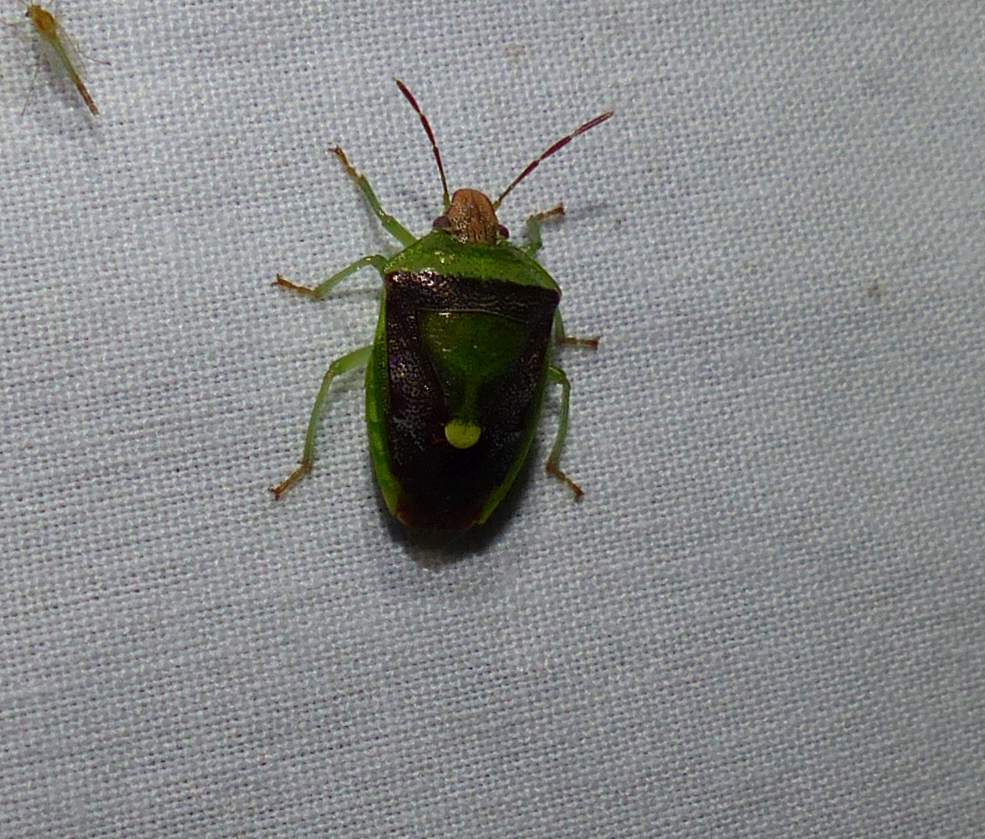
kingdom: Animalia
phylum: Arthropoda
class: Insecta
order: Hemiptera
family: Pentatomidae
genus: Banasa
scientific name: Banasa dimidiata
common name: Green burgundy stink bug
